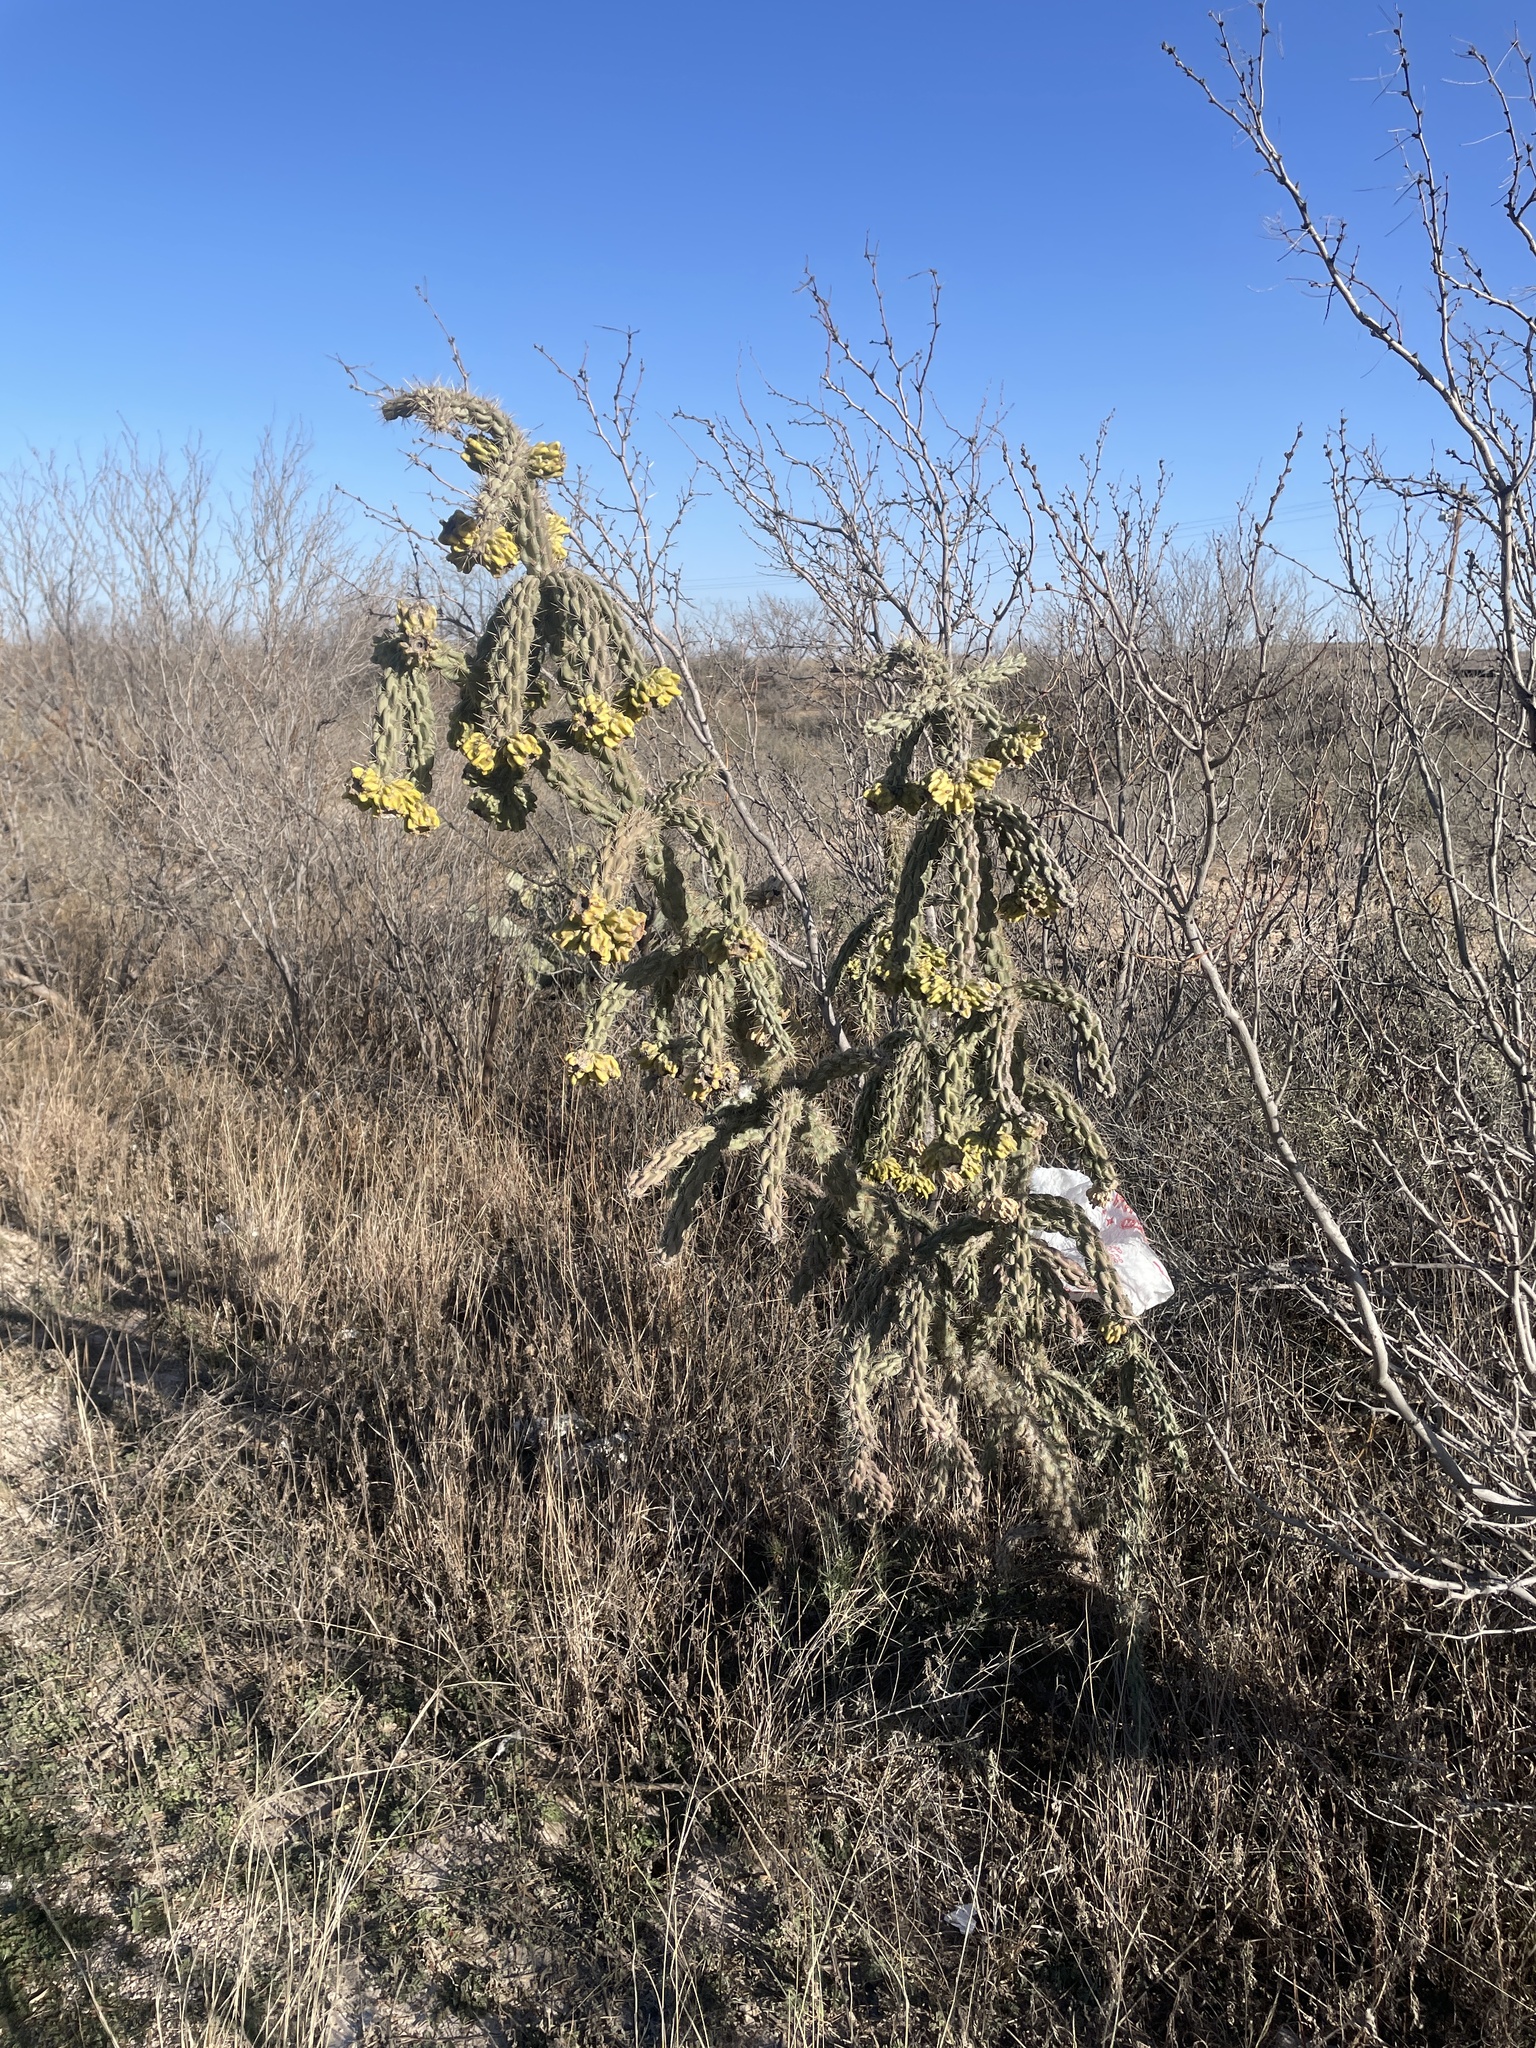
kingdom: Plantae
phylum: Tracheophyta
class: Magnoliopsida
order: Caryophyllales
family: Cactaceae
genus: Cylindropuntia
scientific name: Cylindropuntia imbricata
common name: Candelabrum cactus
